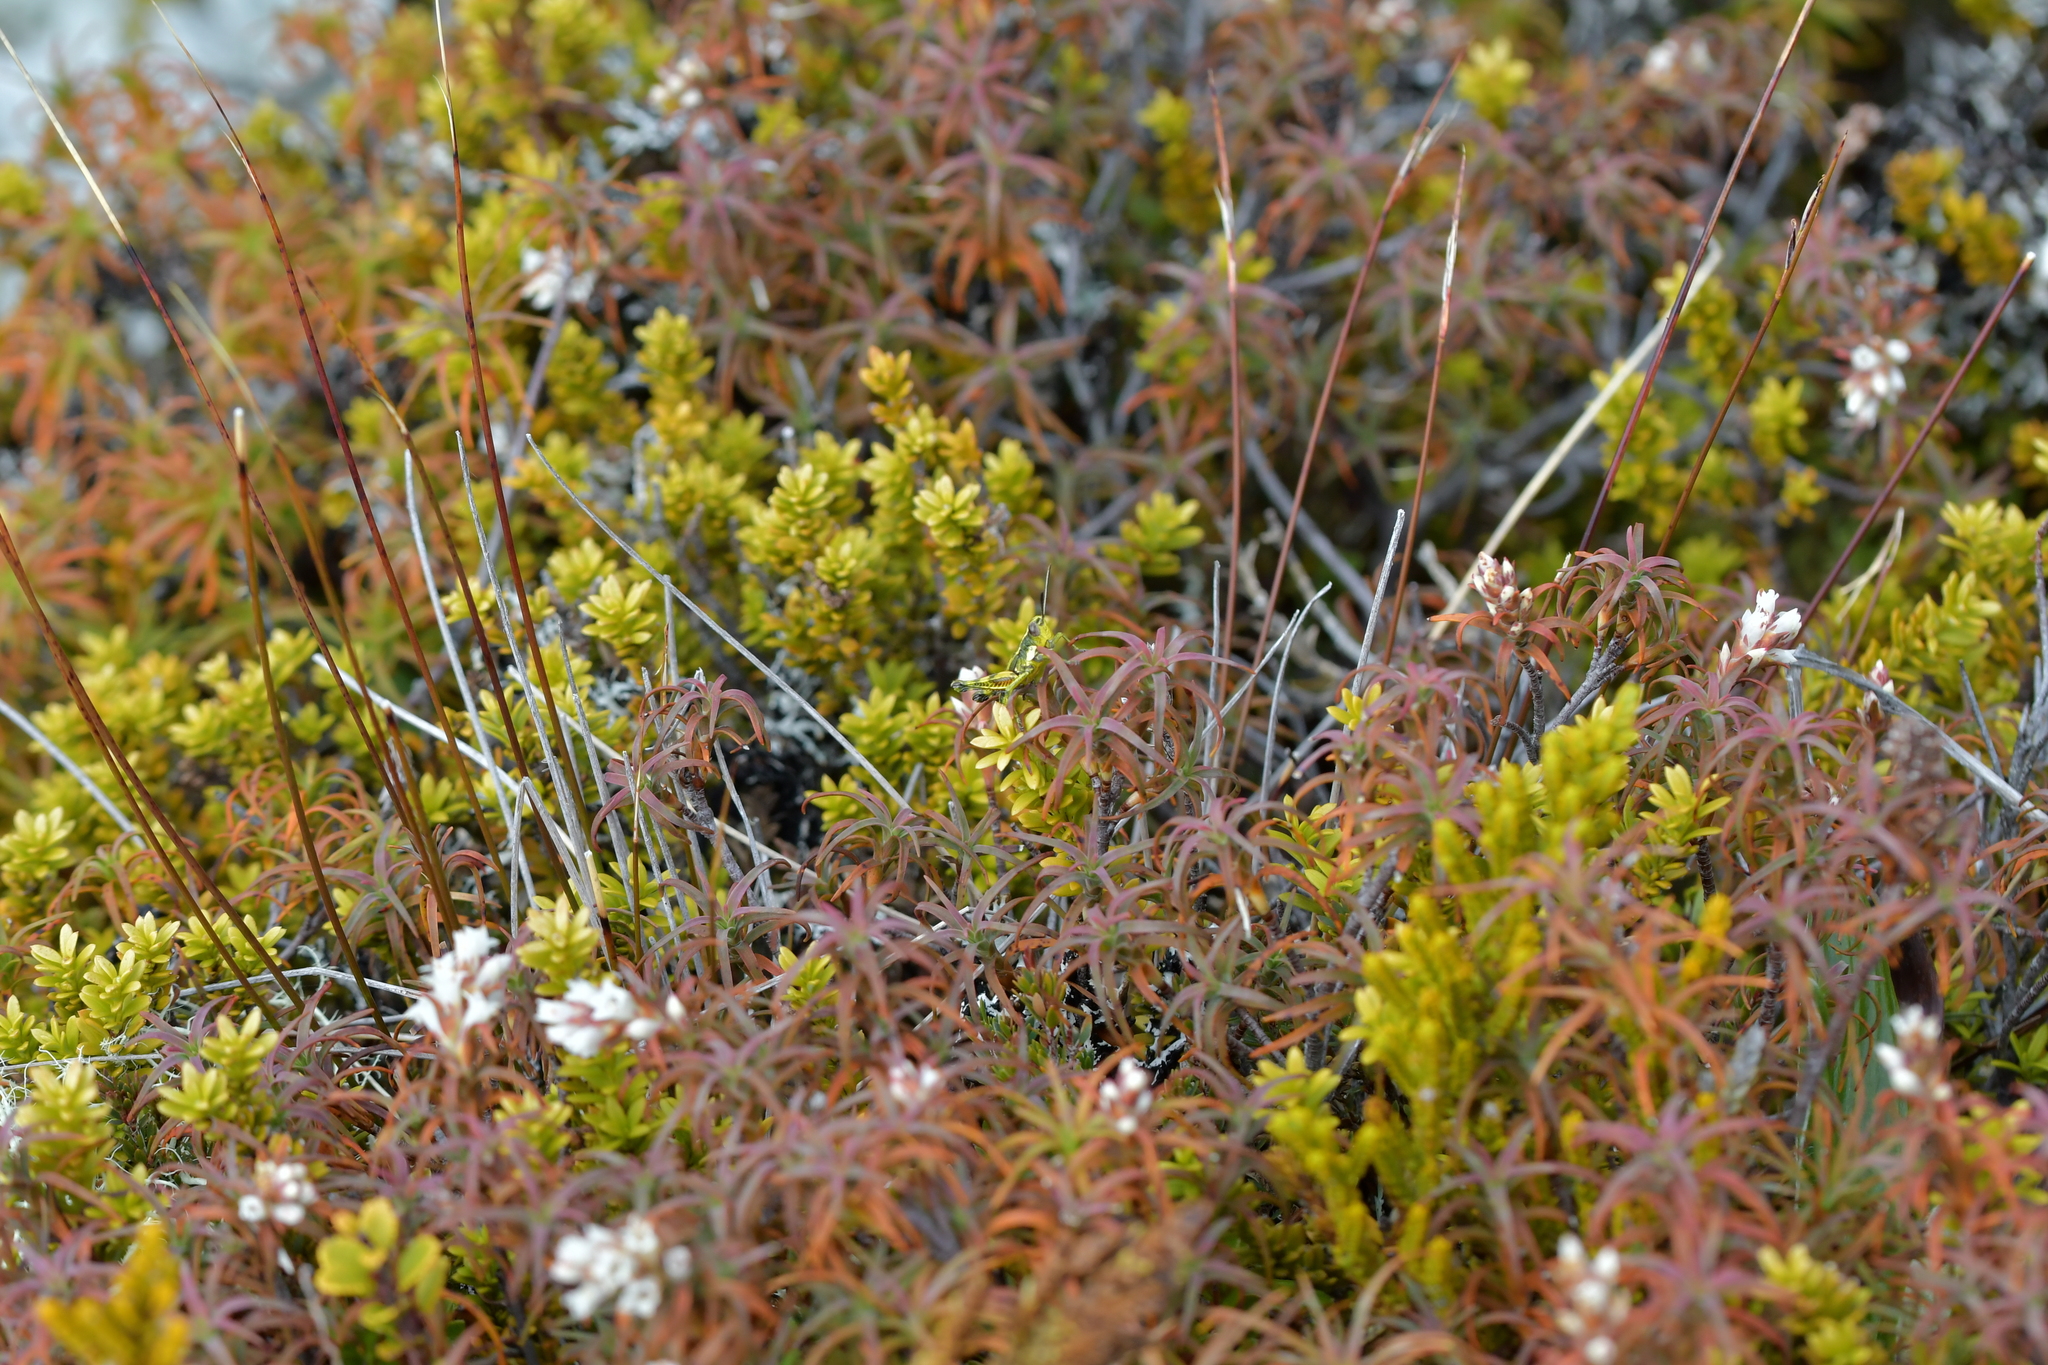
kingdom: Animalia
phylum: Arthropoda
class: Insecta
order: Orthoptera
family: Acrididae
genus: Sigaus
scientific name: Sigaus piliferus
